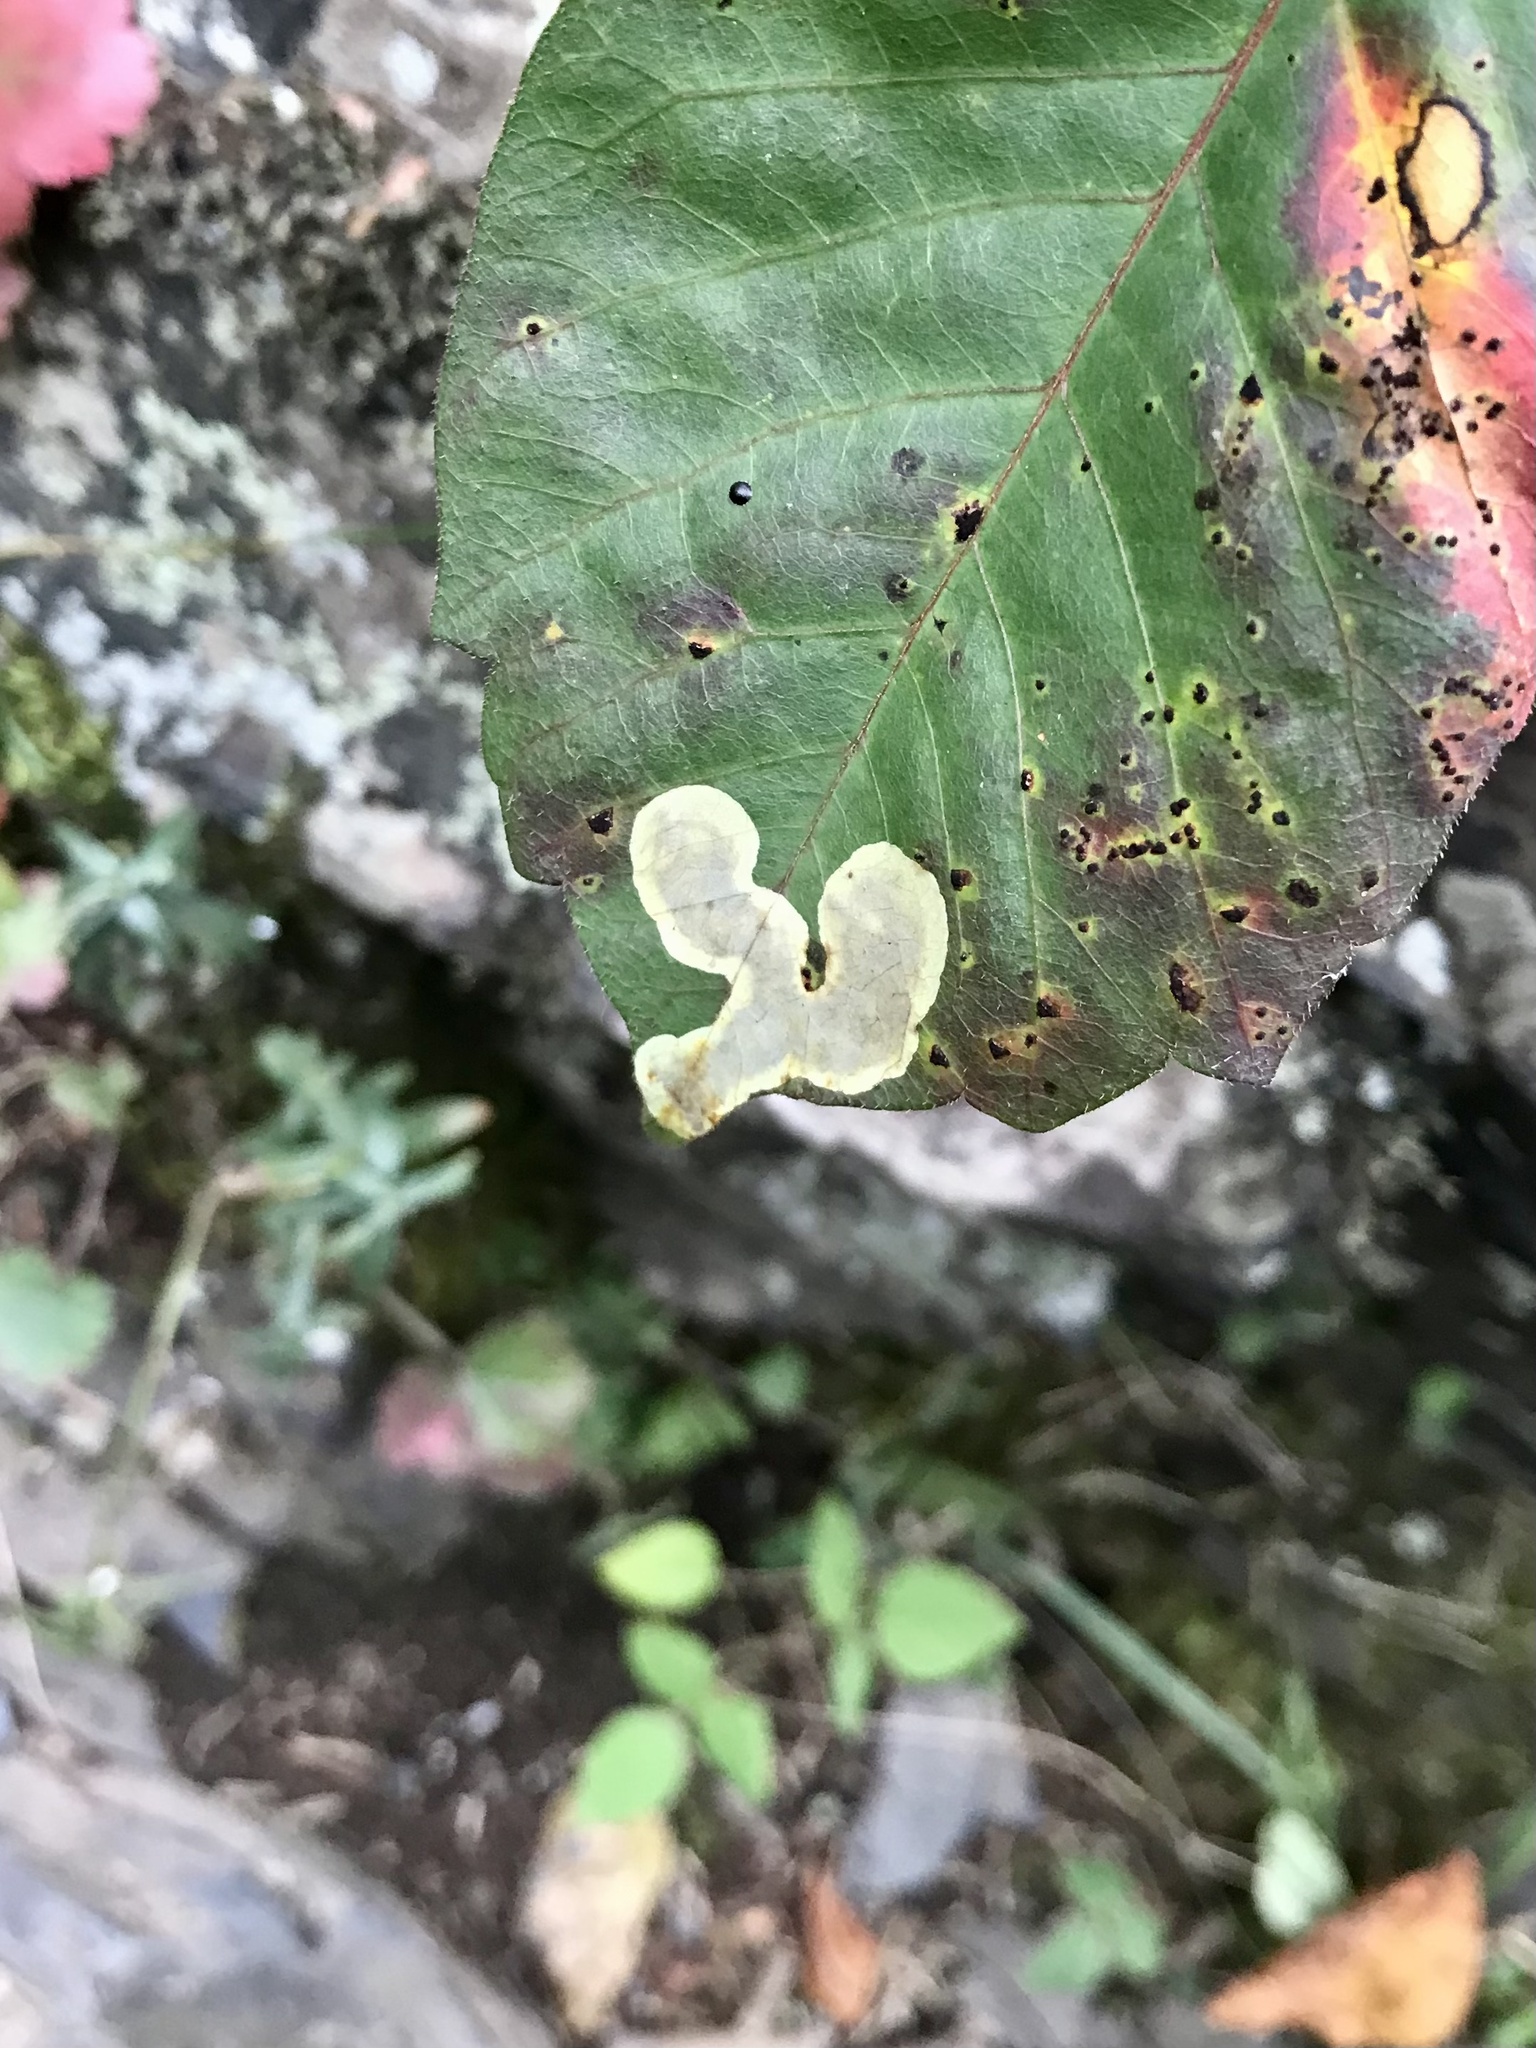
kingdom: Animalia
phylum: Arthropoda
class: Insecta
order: Lepidoptera
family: Gracillariidae
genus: Cameraria
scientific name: Cameraria guttifinitella
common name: Poison ivy leaf-miner moth
